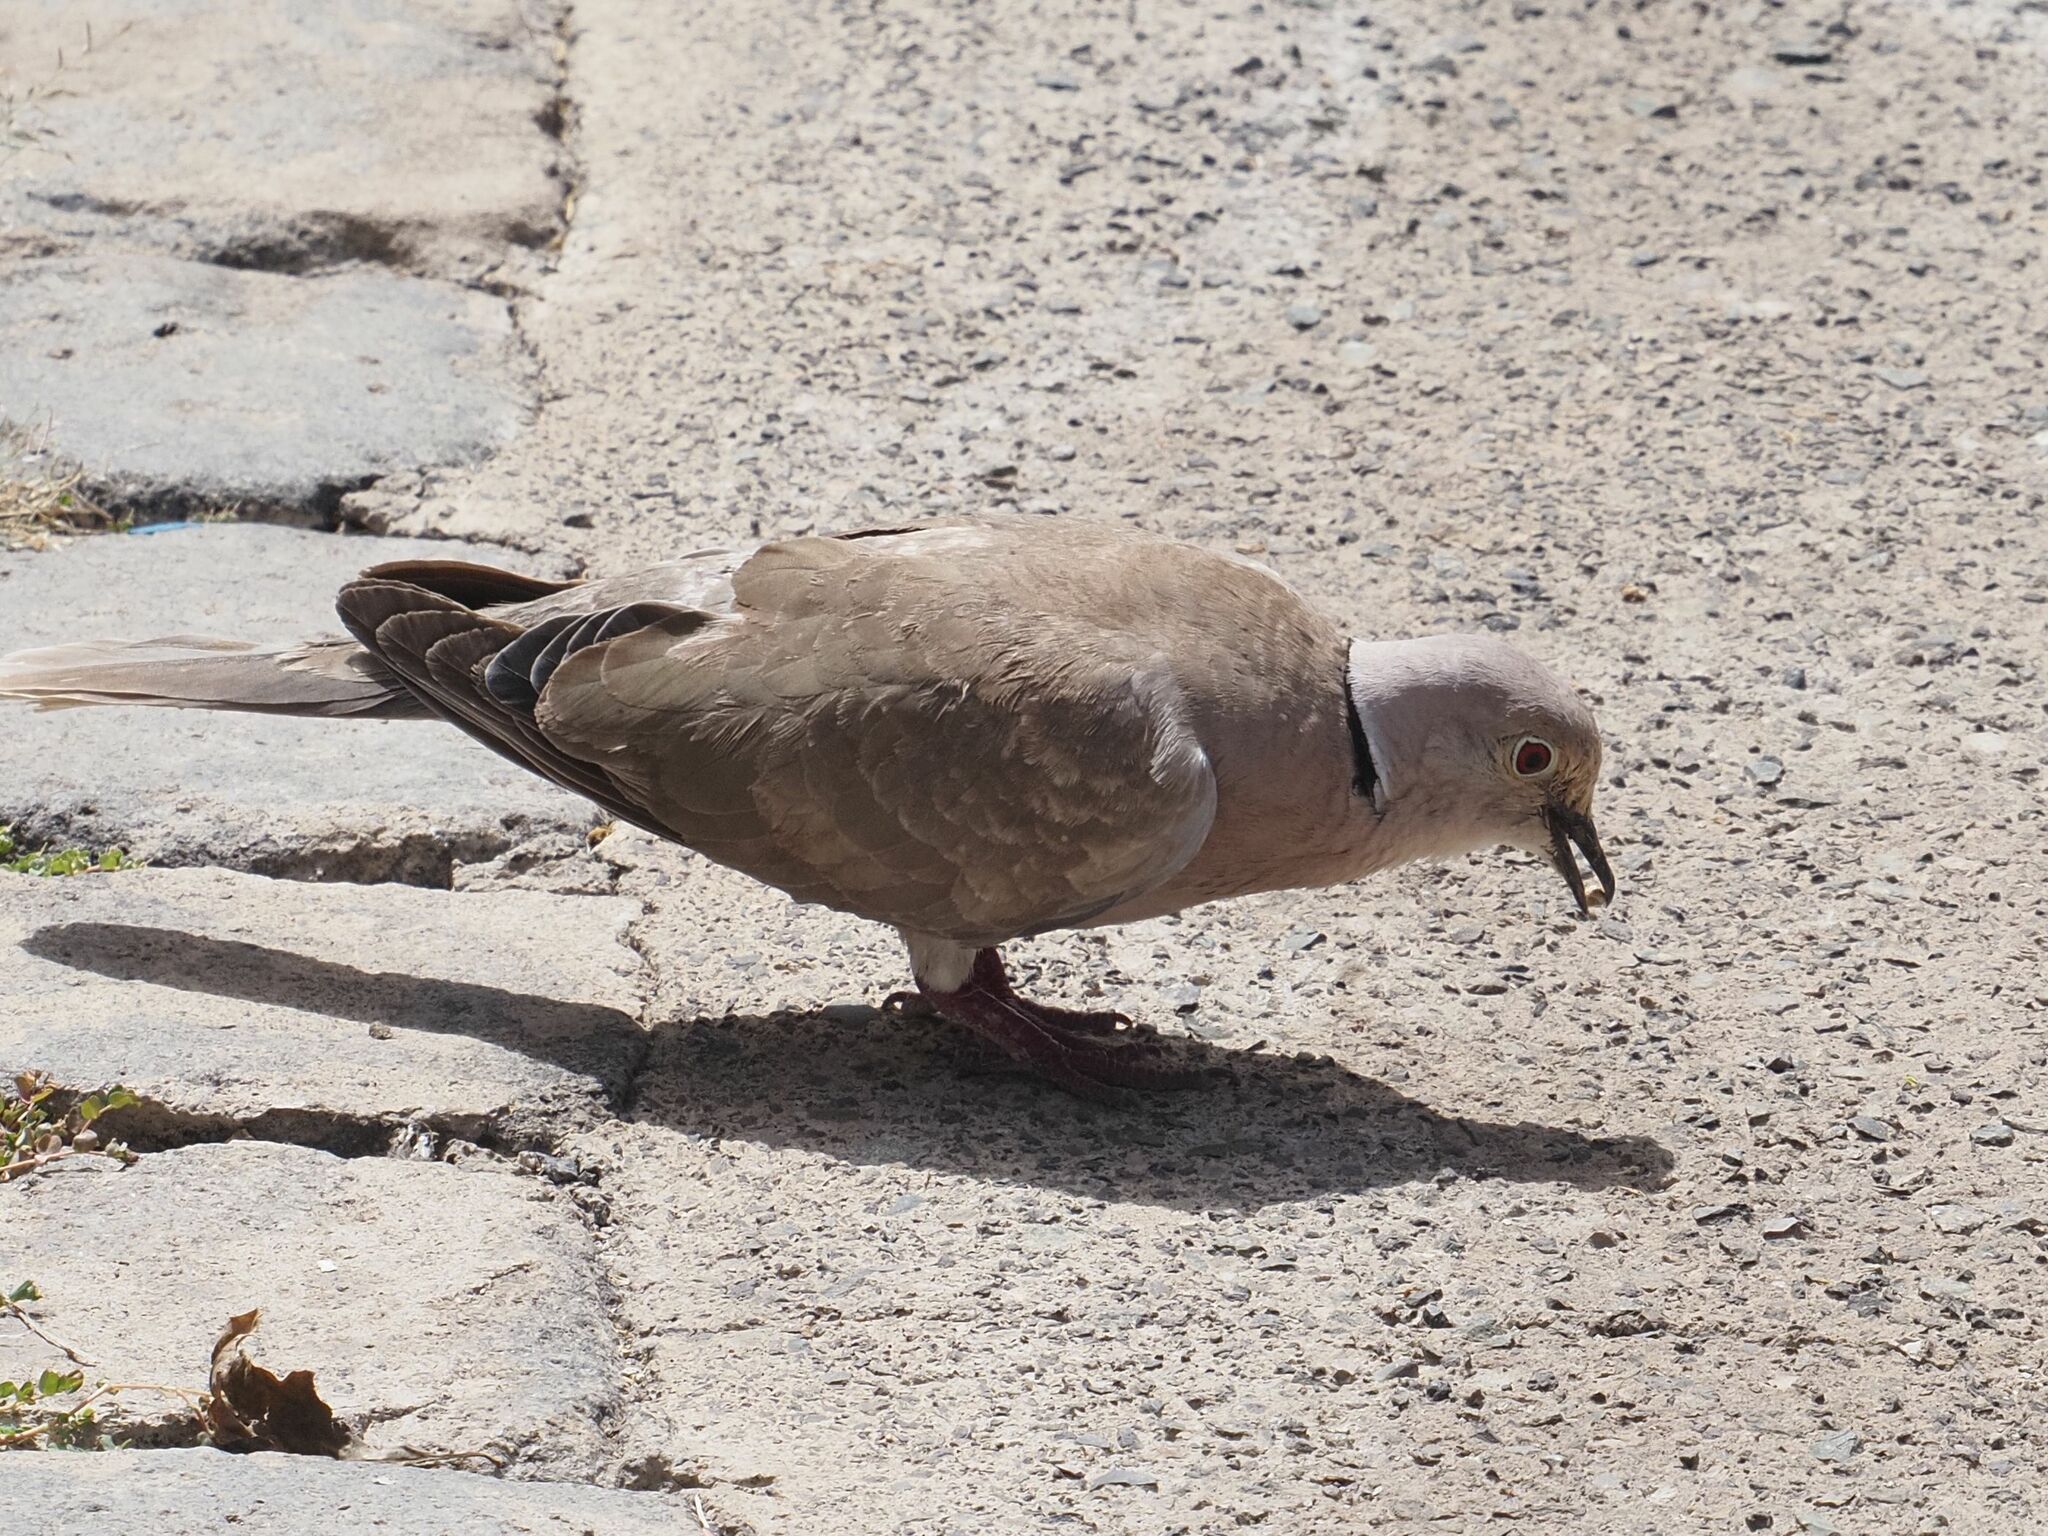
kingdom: Animalia
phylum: Chordata
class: Aves
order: Columbiformes
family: Columbidae
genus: Streptopelia
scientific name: Streptopelia decaocto
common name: Eurasian collared dove
